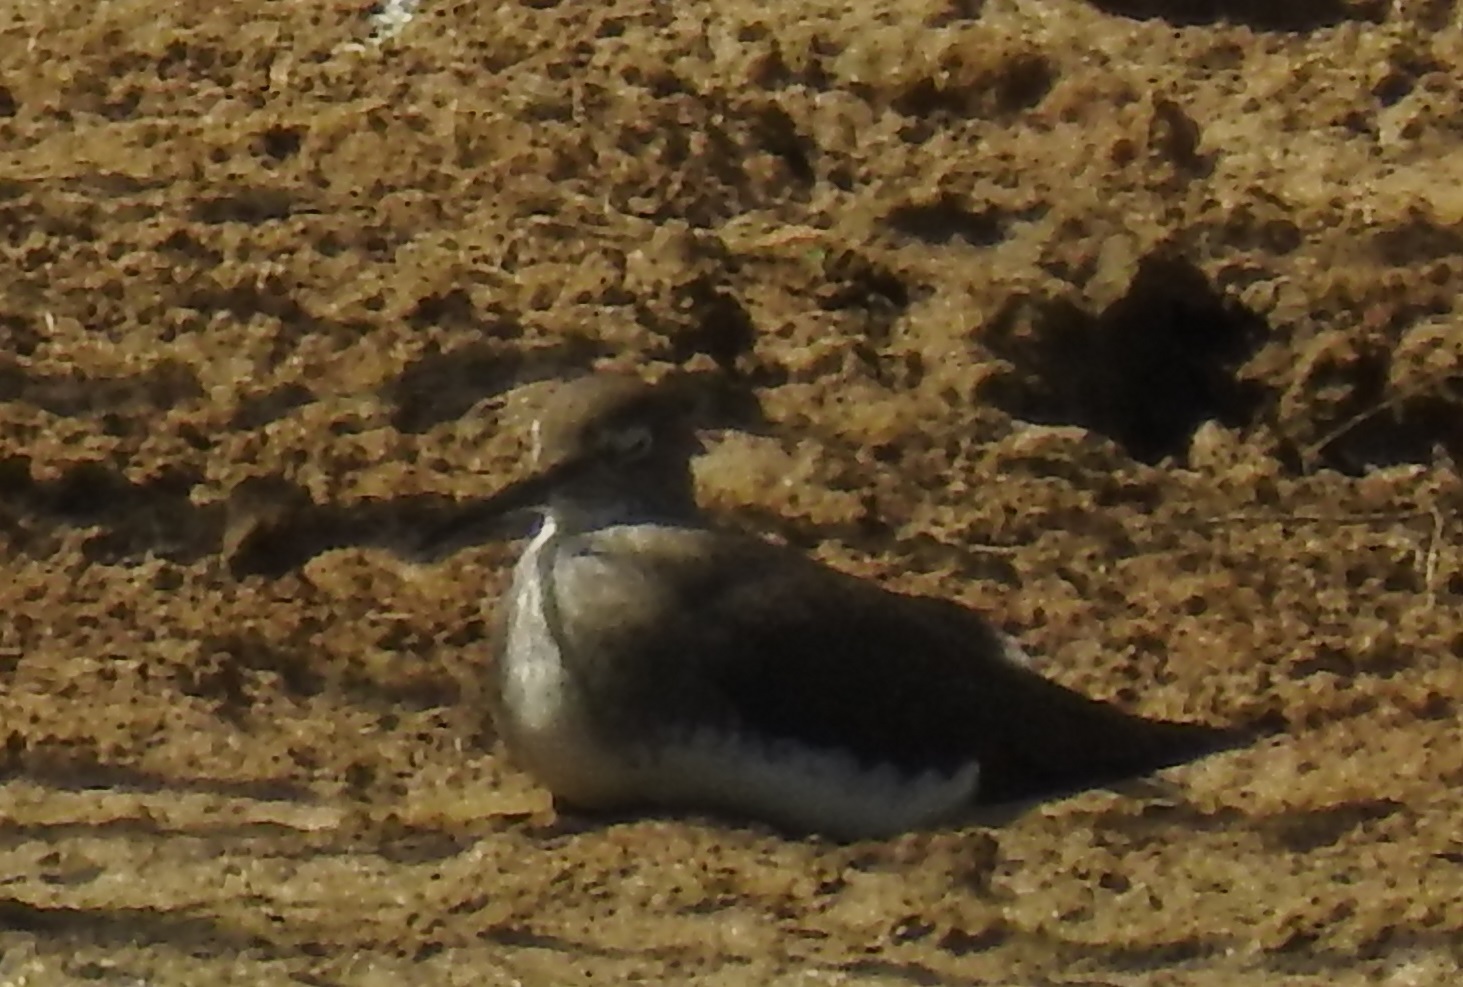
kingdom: Animalia
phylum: Chordata
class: Aves
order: Charadriiformes
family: Scolopacidae
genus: Tringa
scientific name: Tringa ochropus
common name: Green sandpiper
